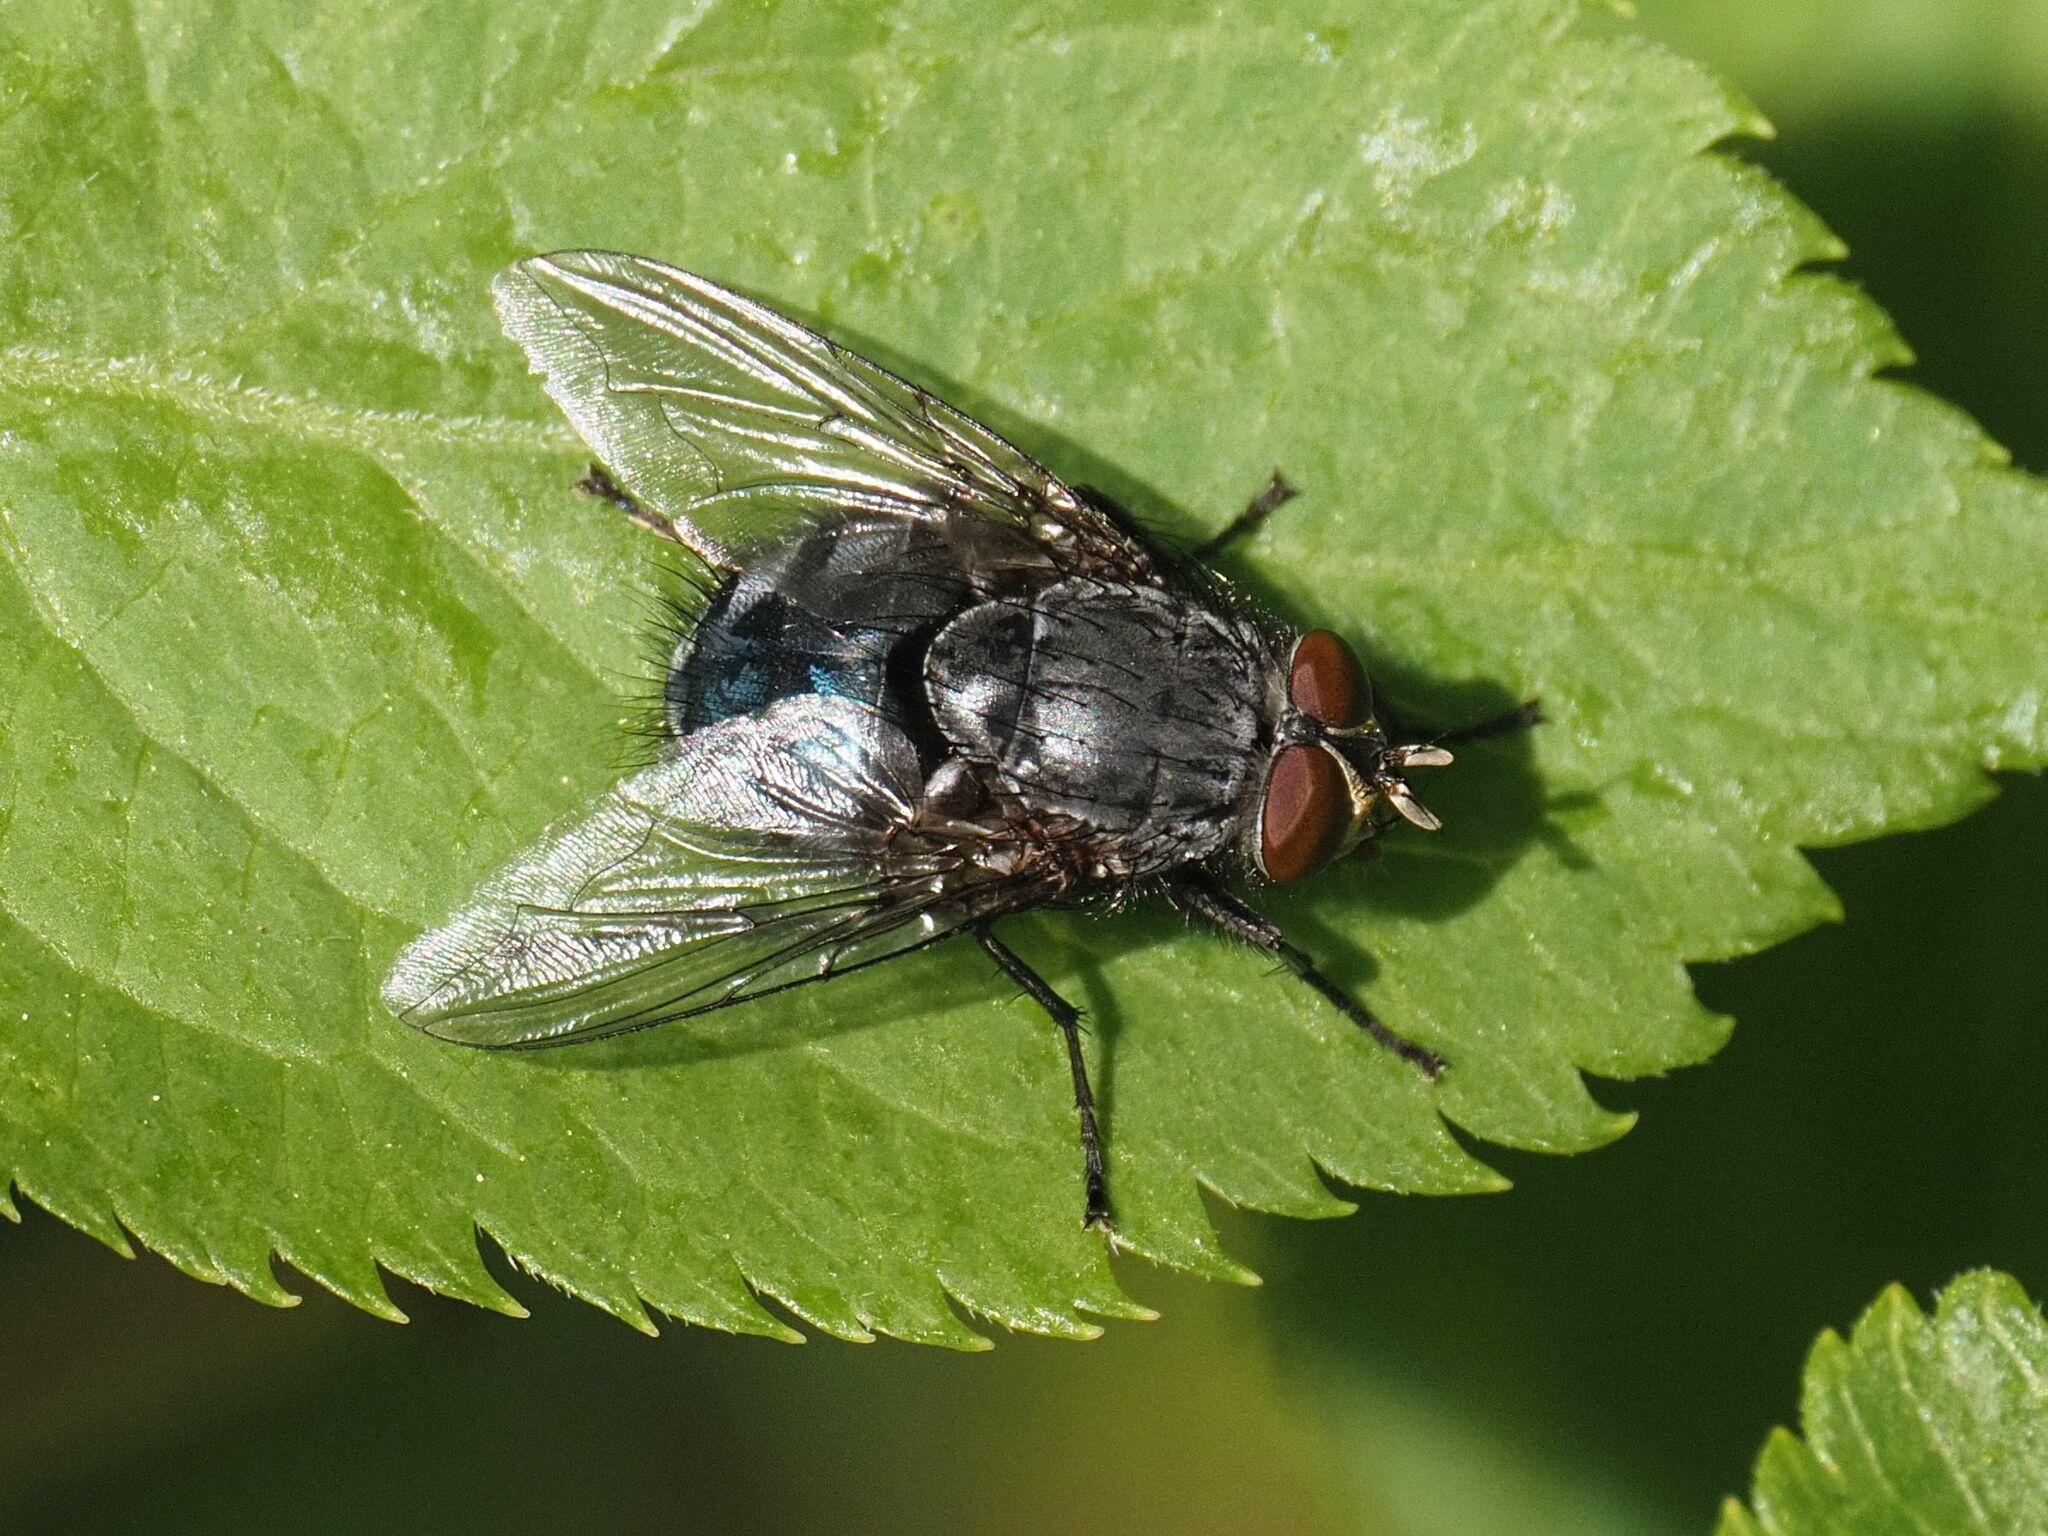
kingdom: Animalia
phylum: Arthropoda
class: Insecta
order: Diptera
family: Calliphoridae
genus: Calliphora
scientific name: Calliphora vicina
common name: Common blow flie
